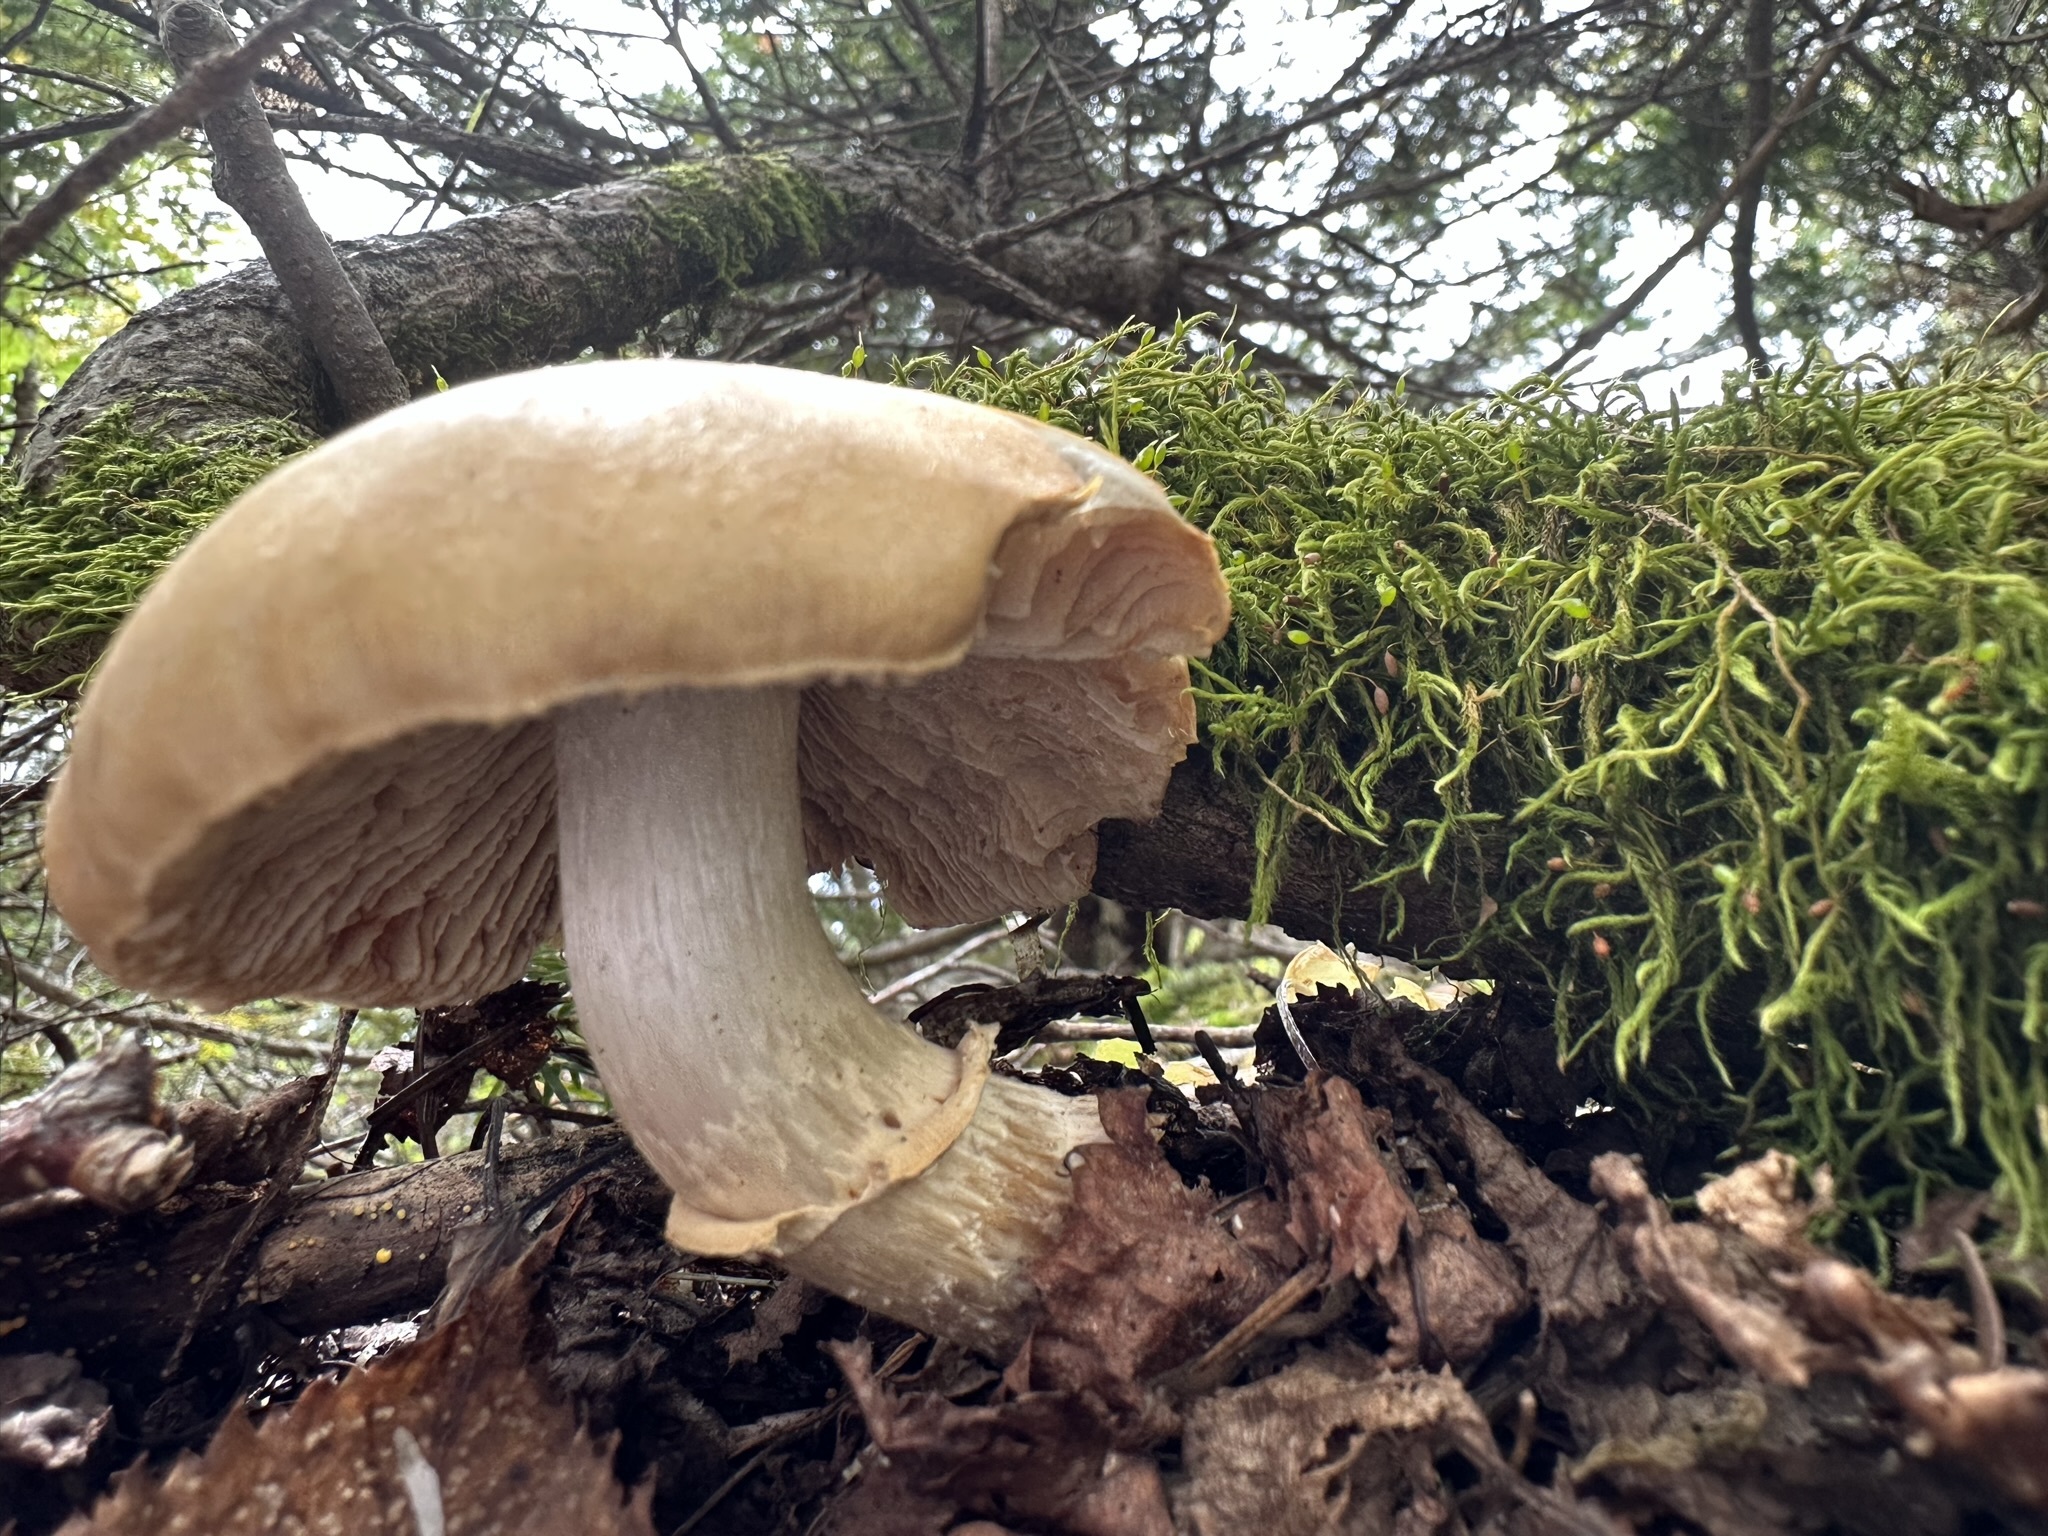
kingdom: Fungi
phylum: Basidiomycota
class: Agaricomycetes
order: Agaricales
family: Cortinariaceae
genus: Cortinarius
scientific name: Cortinarius caperatus
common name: The gypsy
